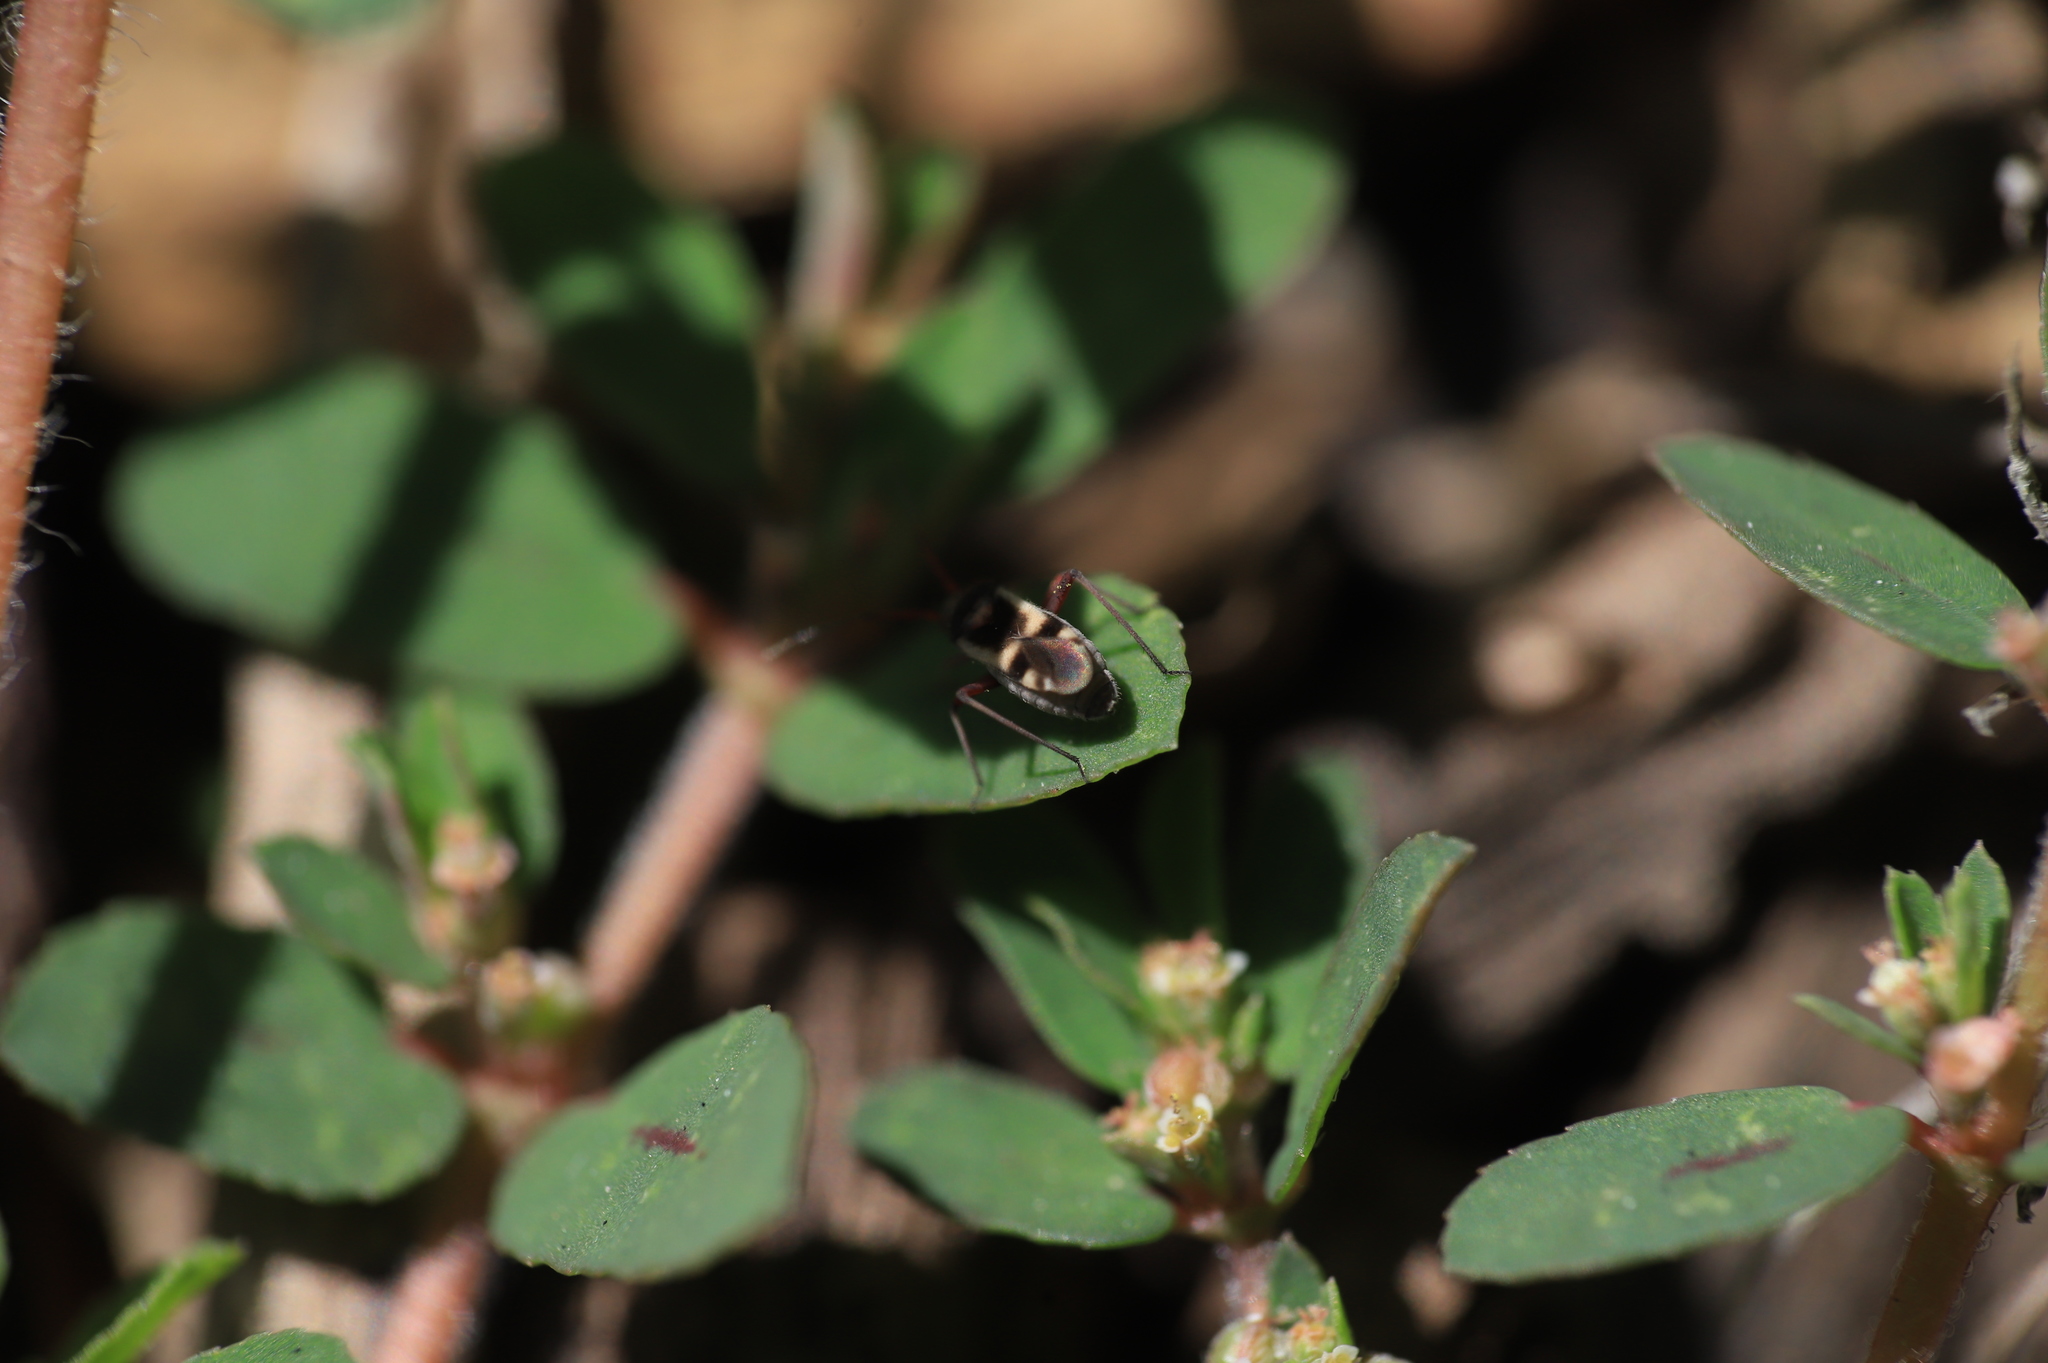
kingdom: Animalia
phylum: Arthropoda
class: Insecta
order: Hemiptera
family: Miridae
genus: Semium
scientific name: Semium hirtum
